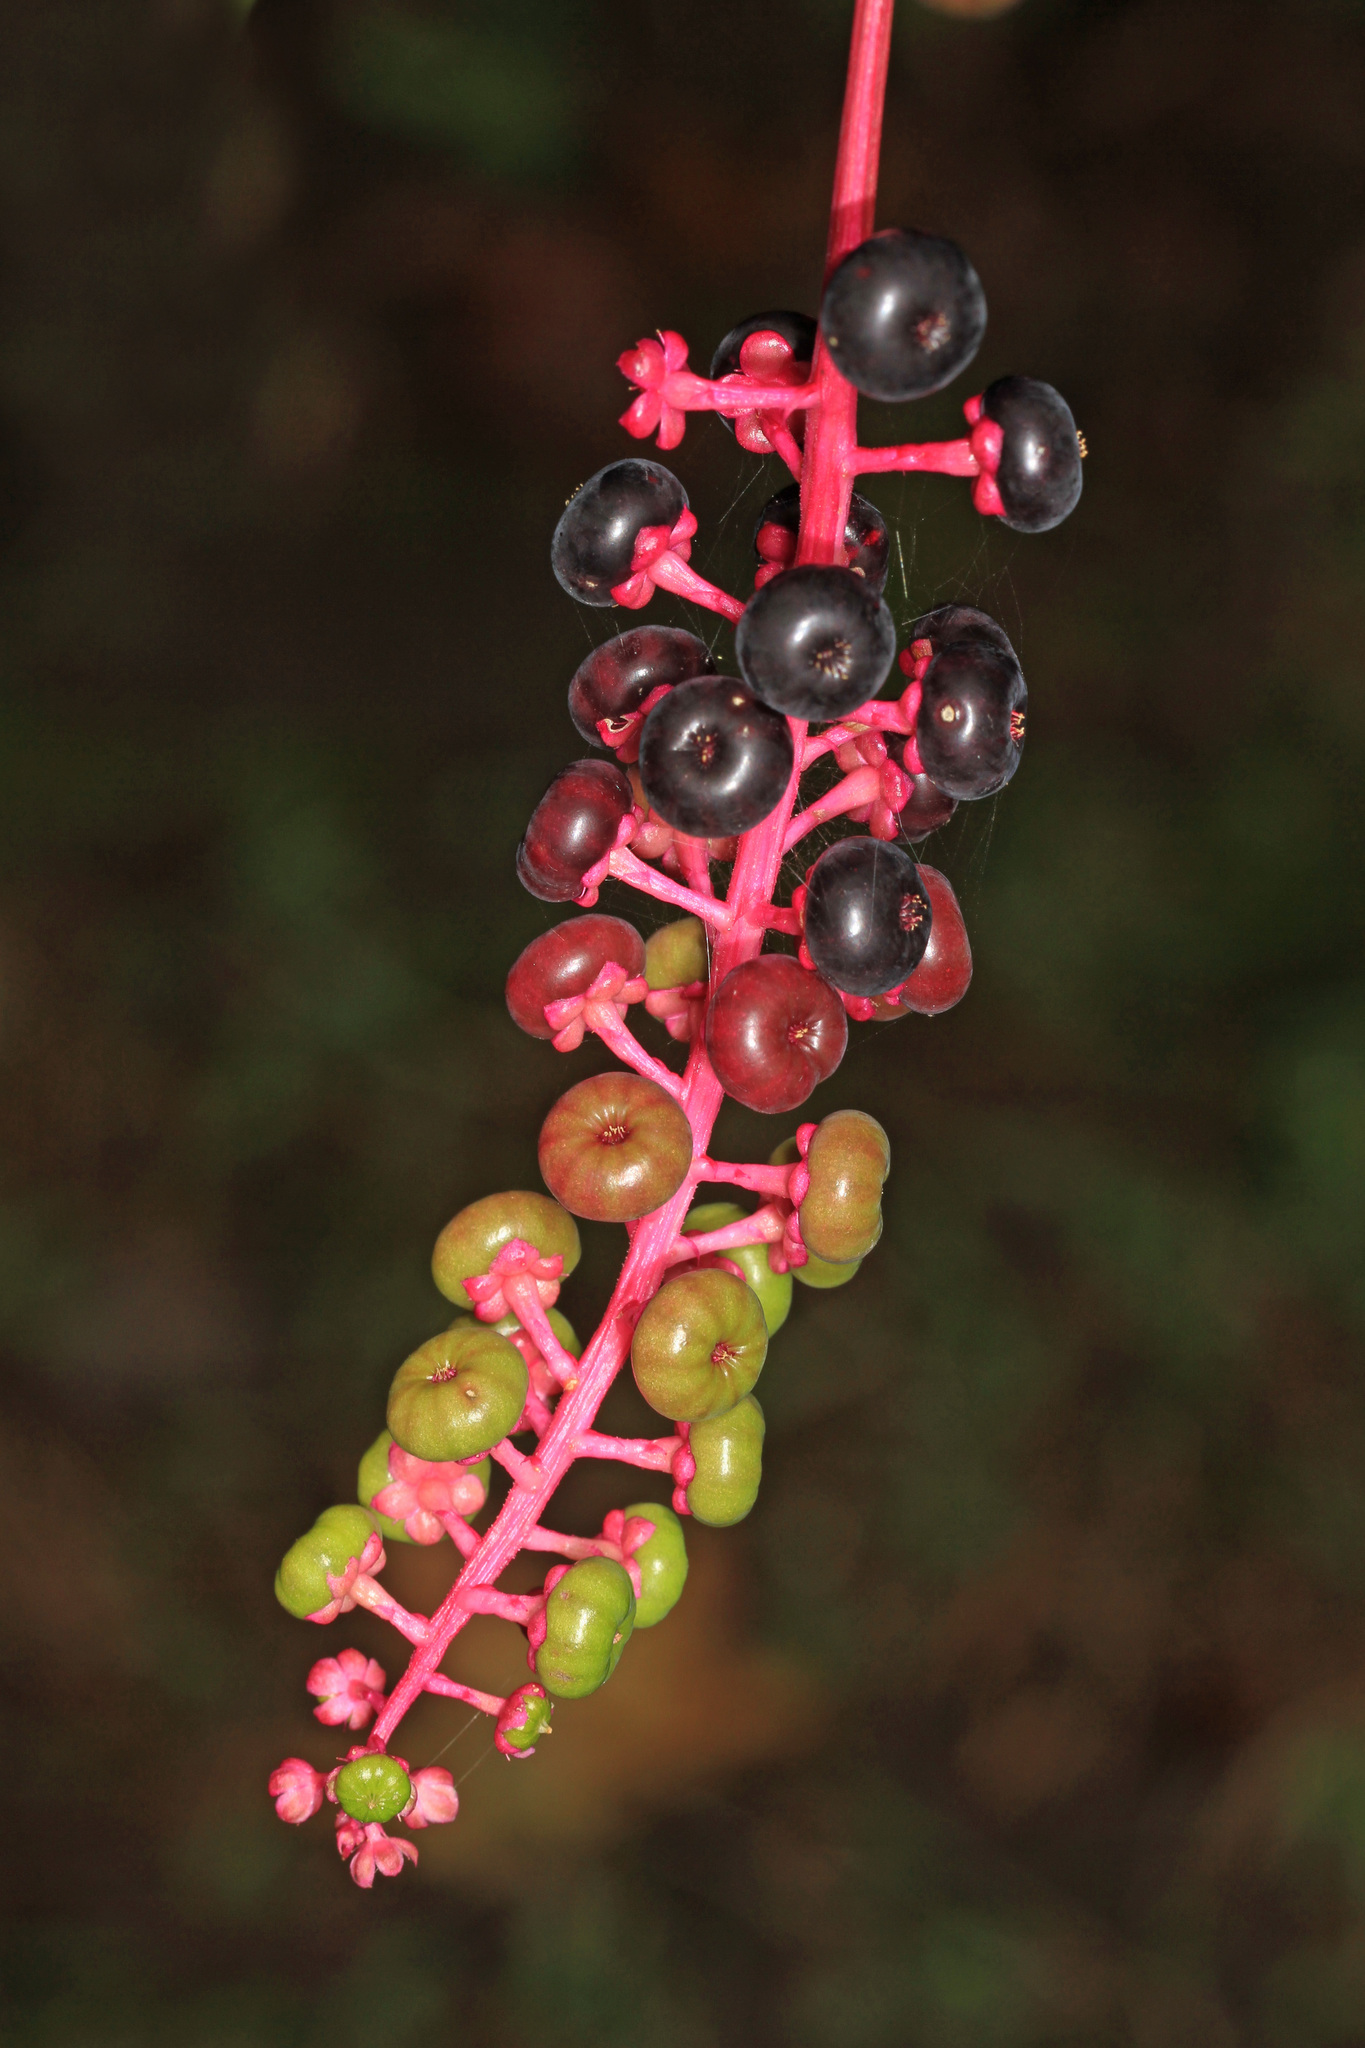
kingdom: Plantae
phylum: Tracheophyta
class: Magnoliopsida
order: Caryophyllales
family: Phytolaccaceae
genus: Phytolacca
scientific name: Phytolacca americana
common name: American pokeweed
